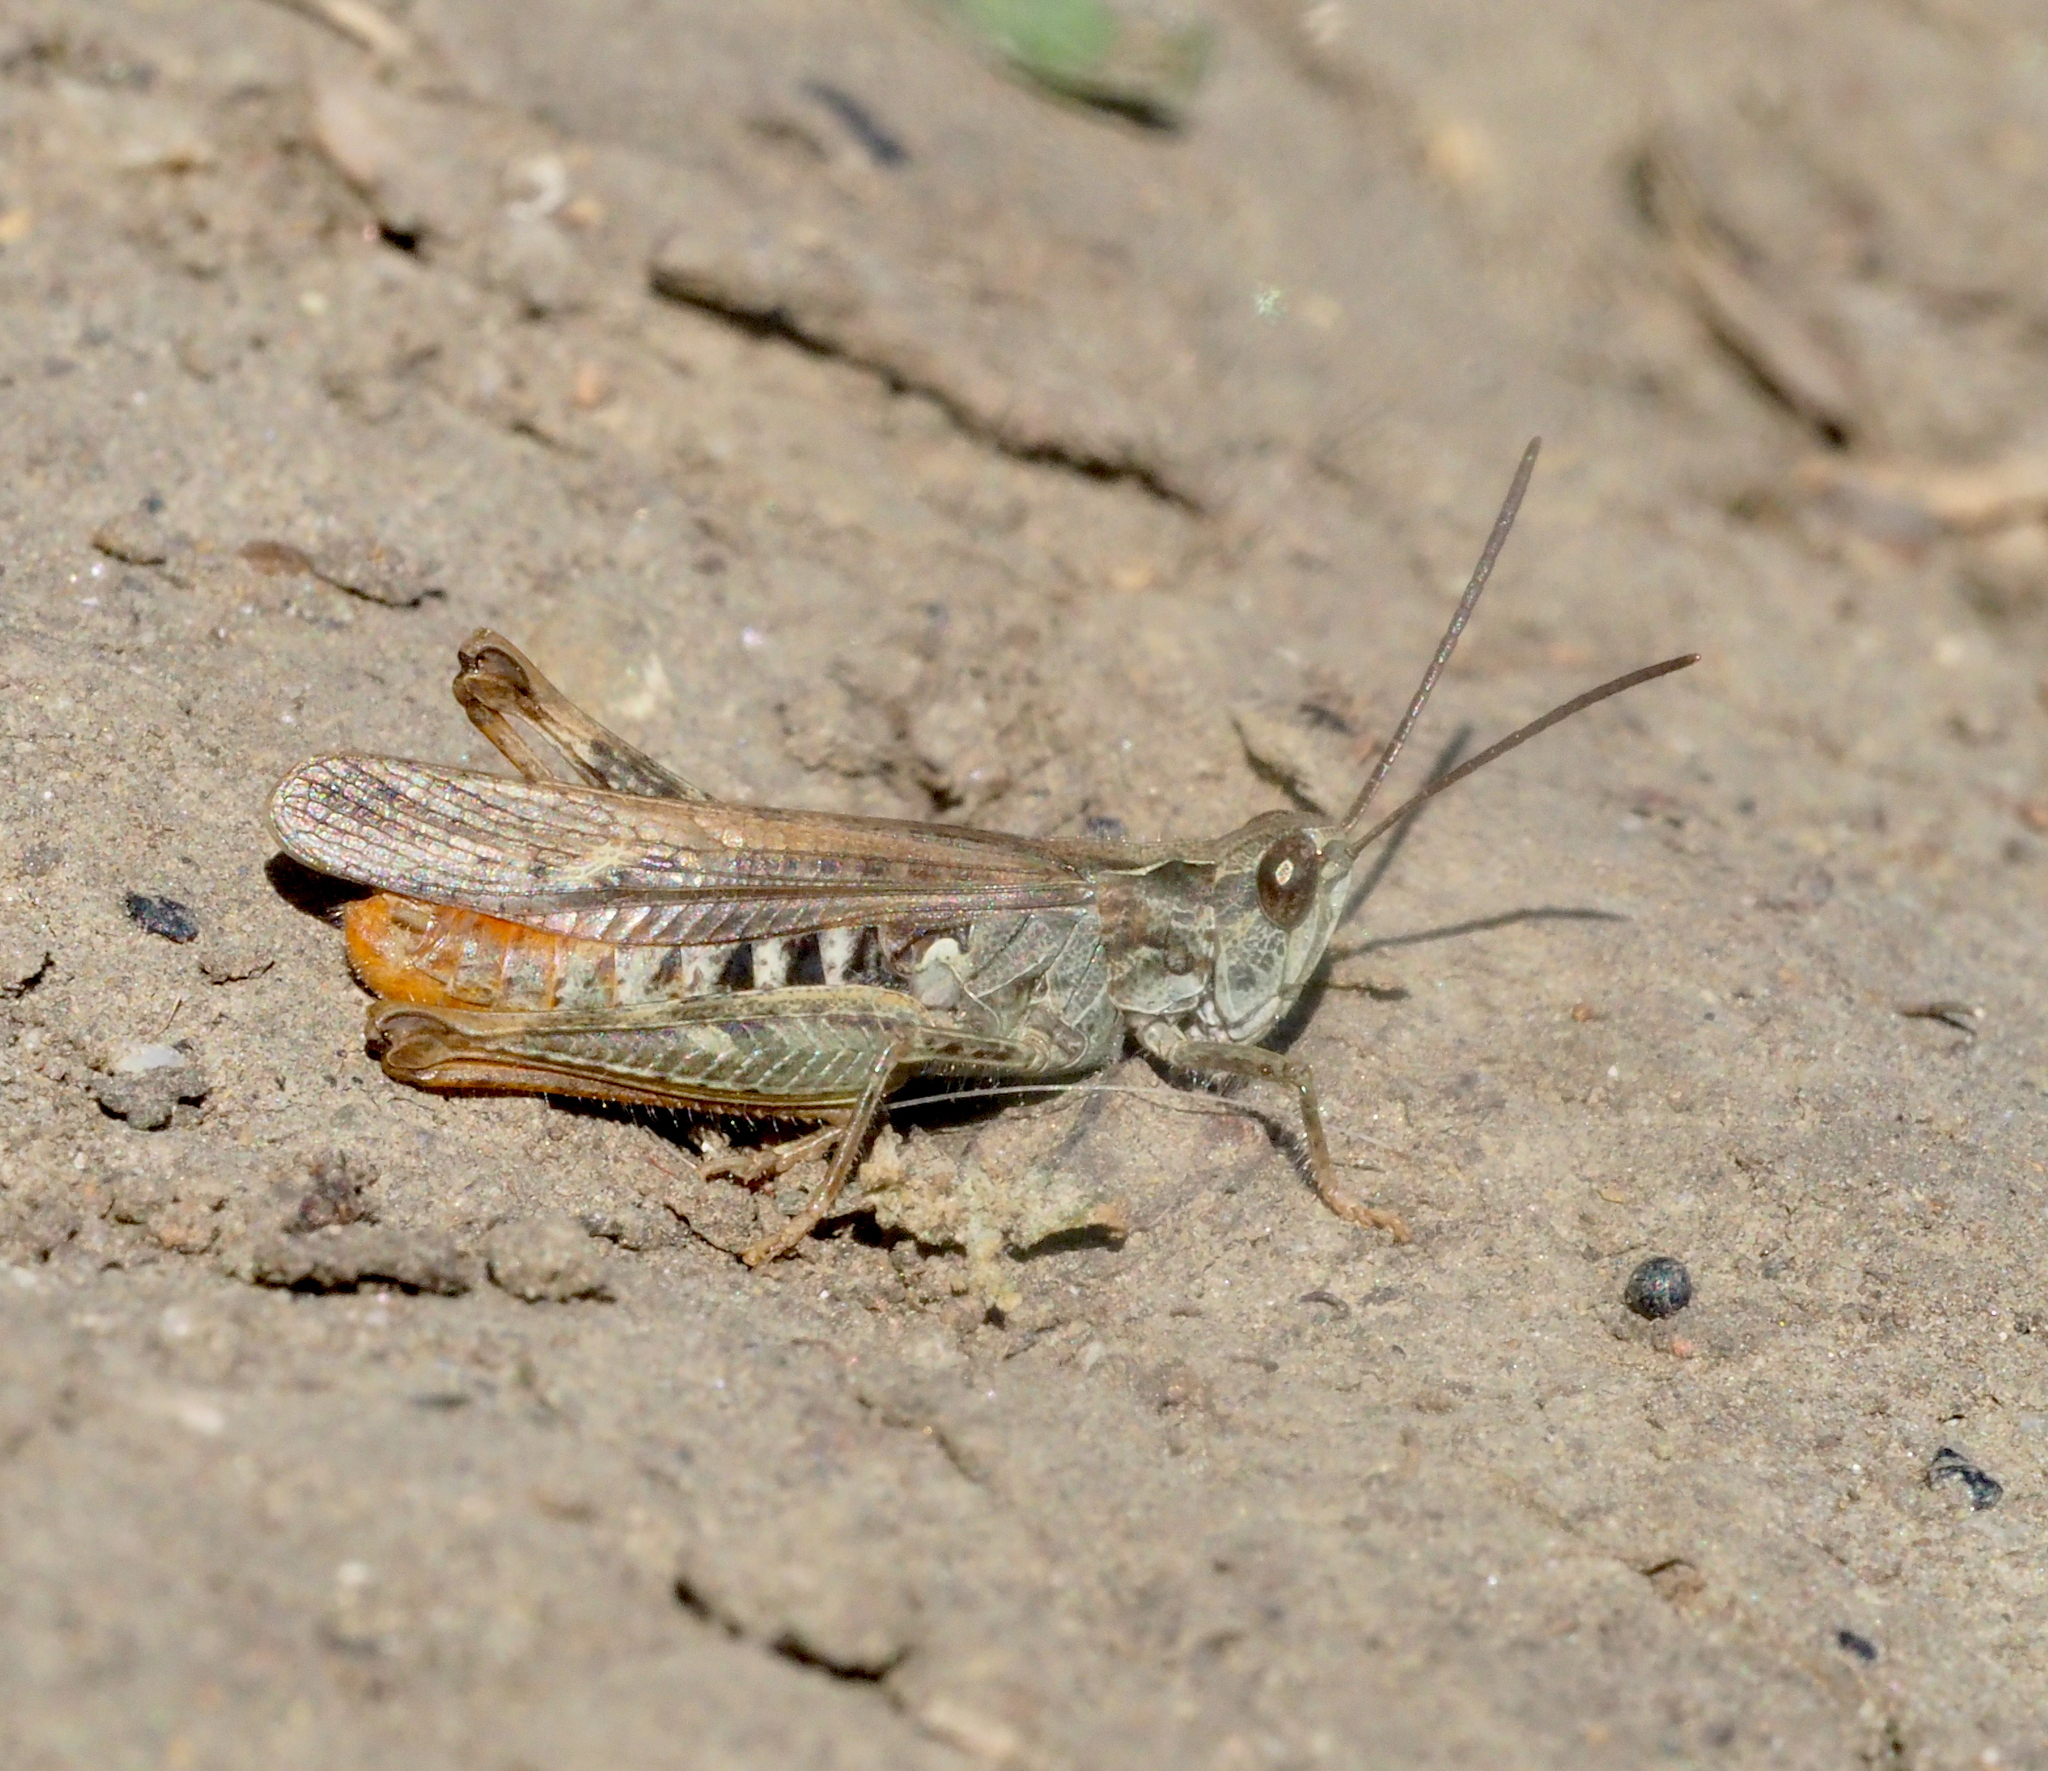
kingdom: Animalia
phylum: Arthropoda
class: Insecta
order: Orthoptera
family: Acrididae
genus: Chorthippus
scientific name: Chorthippus mollis
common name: Lesser field grasshopper
